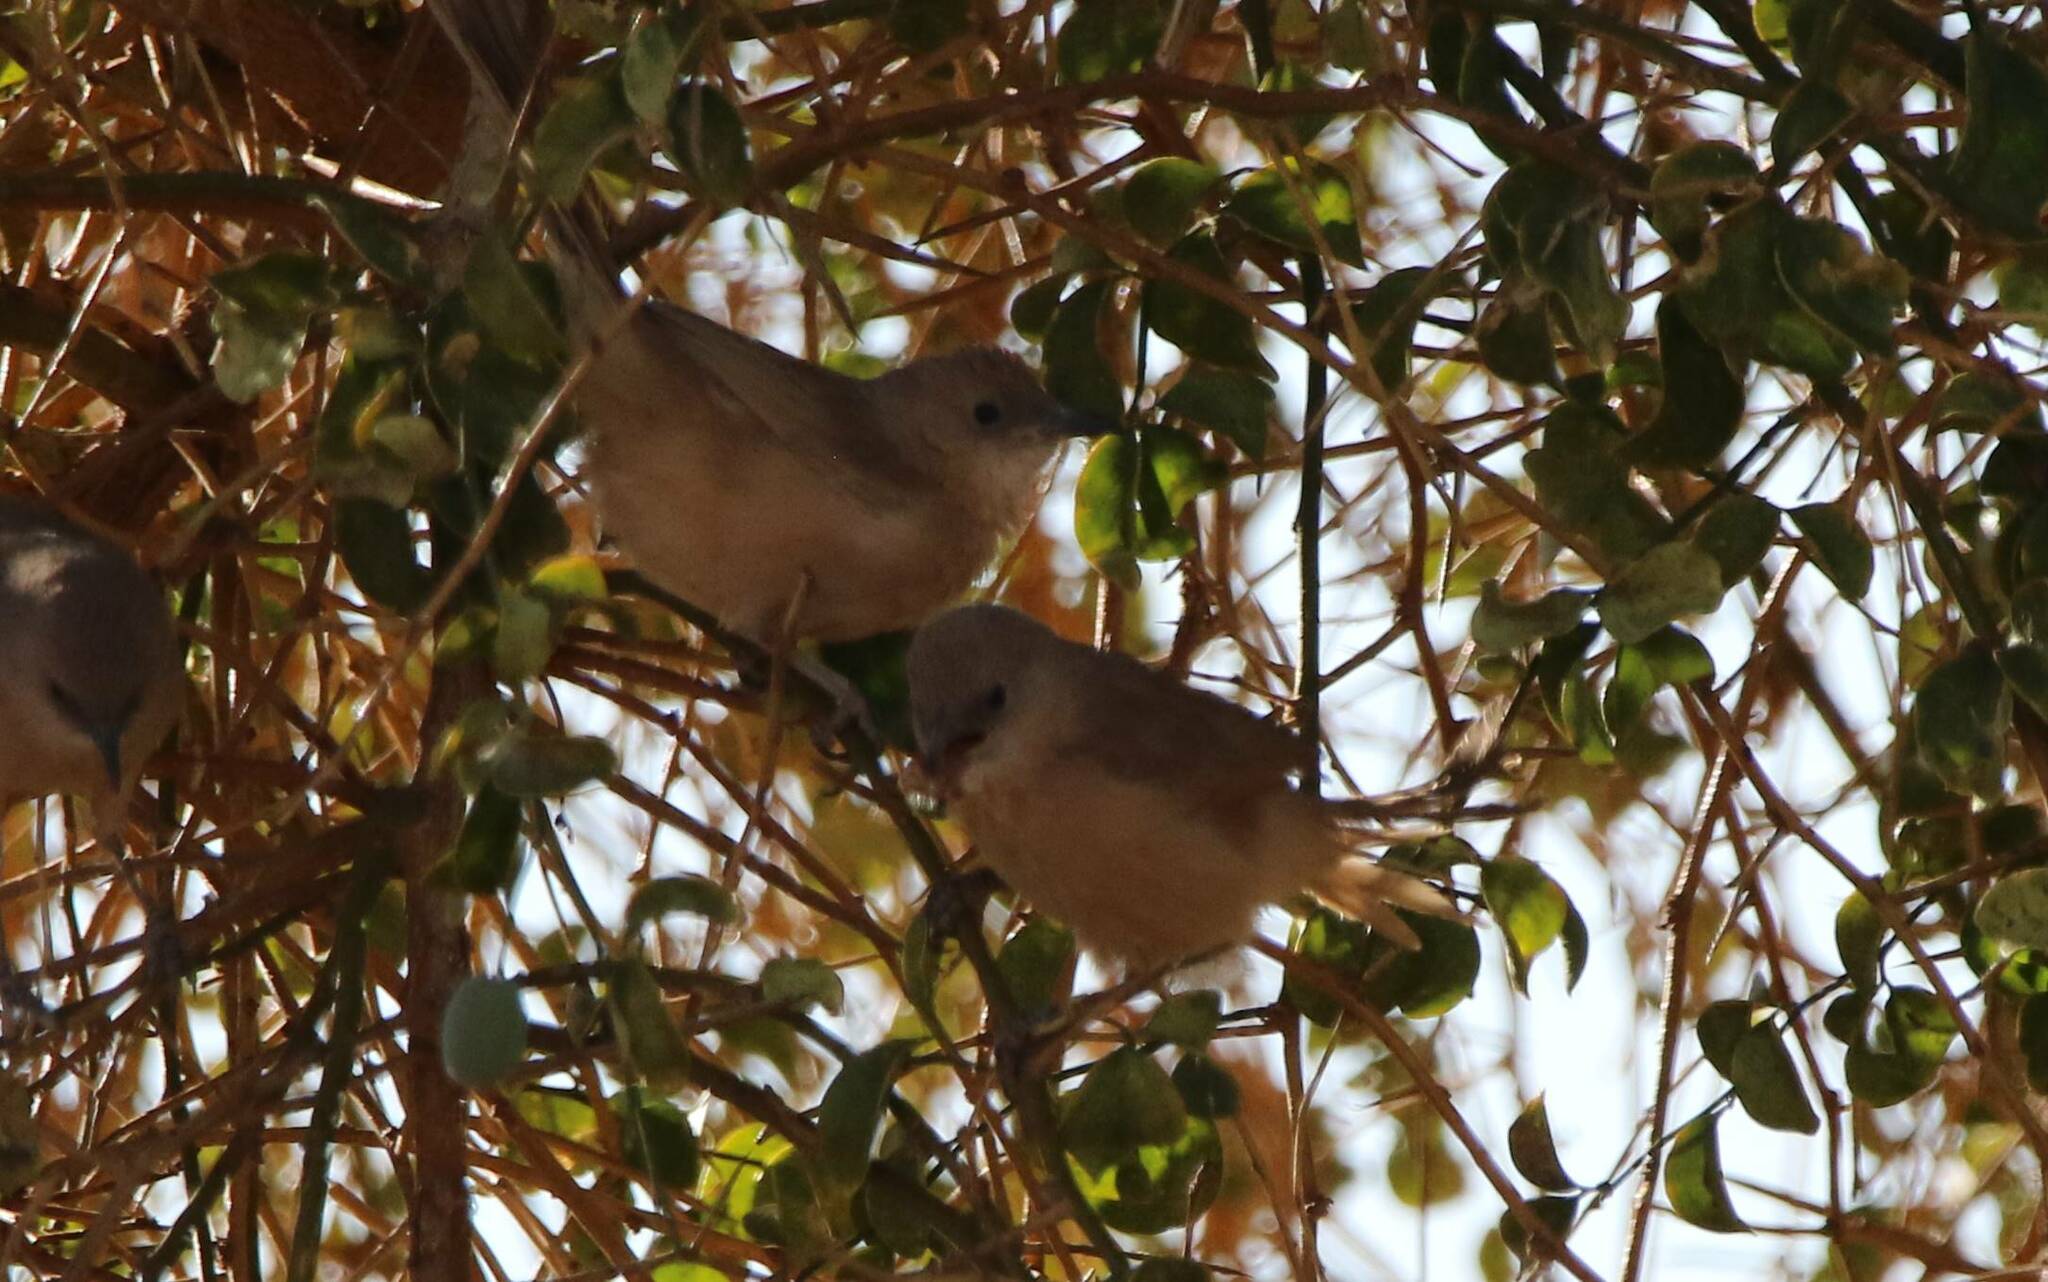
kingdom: Animalia
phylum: Chordata
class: Aves
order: Passeriformes
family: Leiothrichidae
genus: Turdoides
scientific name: Turdoides fulva
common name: Fulvous babbler
